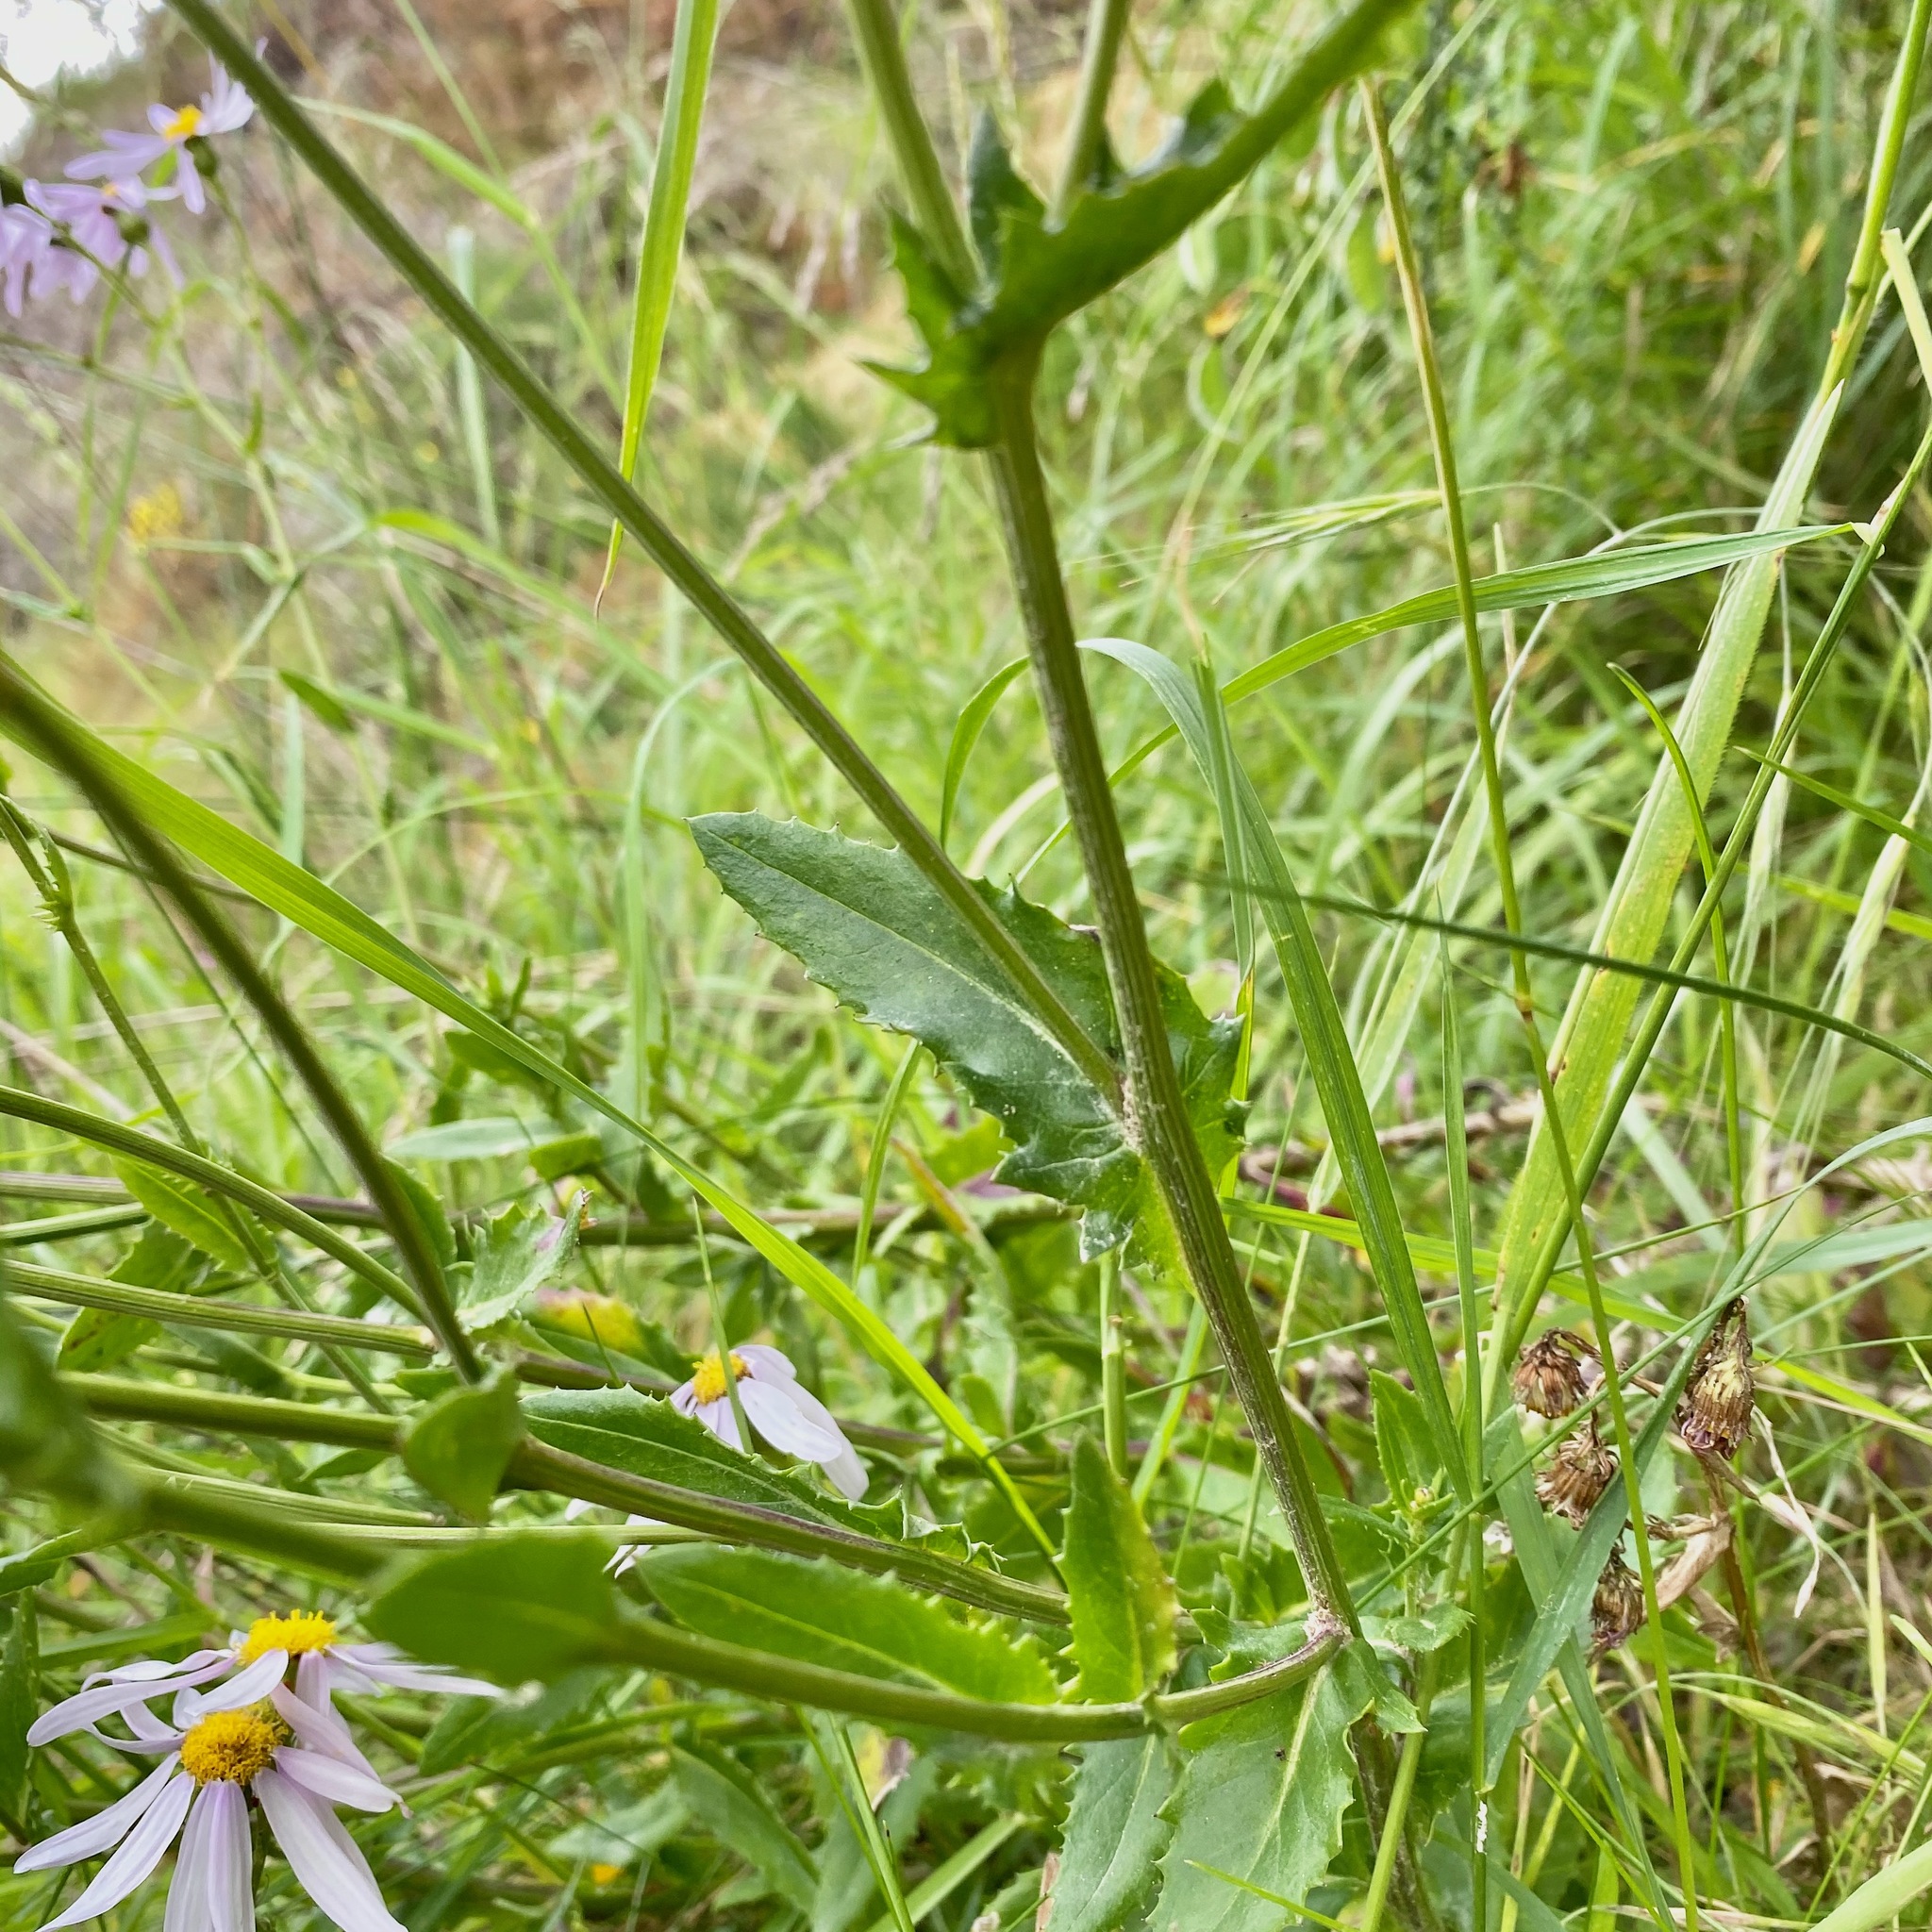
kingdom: Plantae
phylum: Tracheophyta
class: Magnoliopsida
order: Asterales
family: Asteraceae
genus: Senecio
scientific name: Senecio glastifolius
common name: Woad-leaved ragwort
